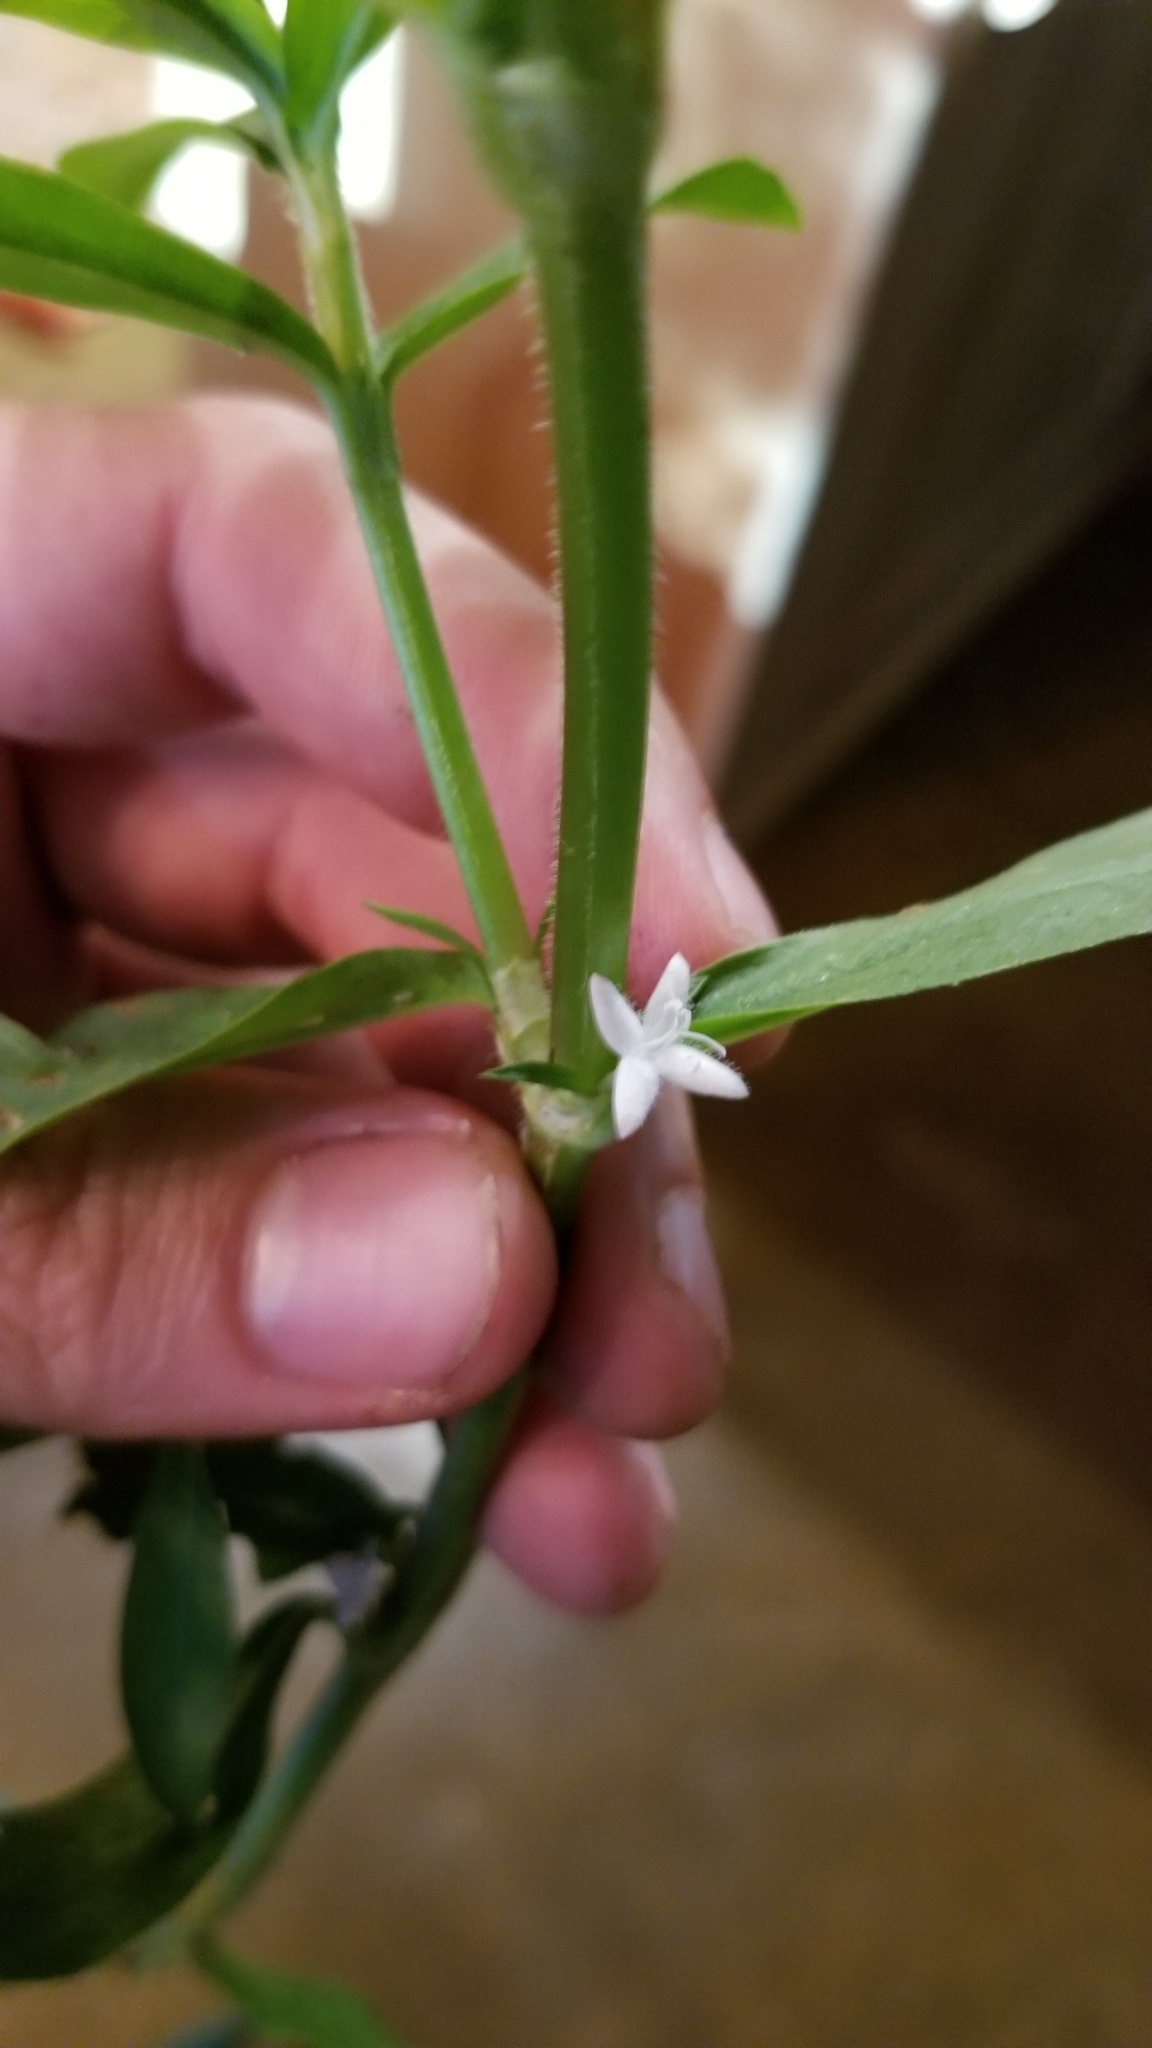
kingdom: Plantae
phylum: Tracheophyta
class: Magnoliopsida
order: Gentianales
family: Rubiaceae
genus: Diodia
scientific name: Diodia virginiana
